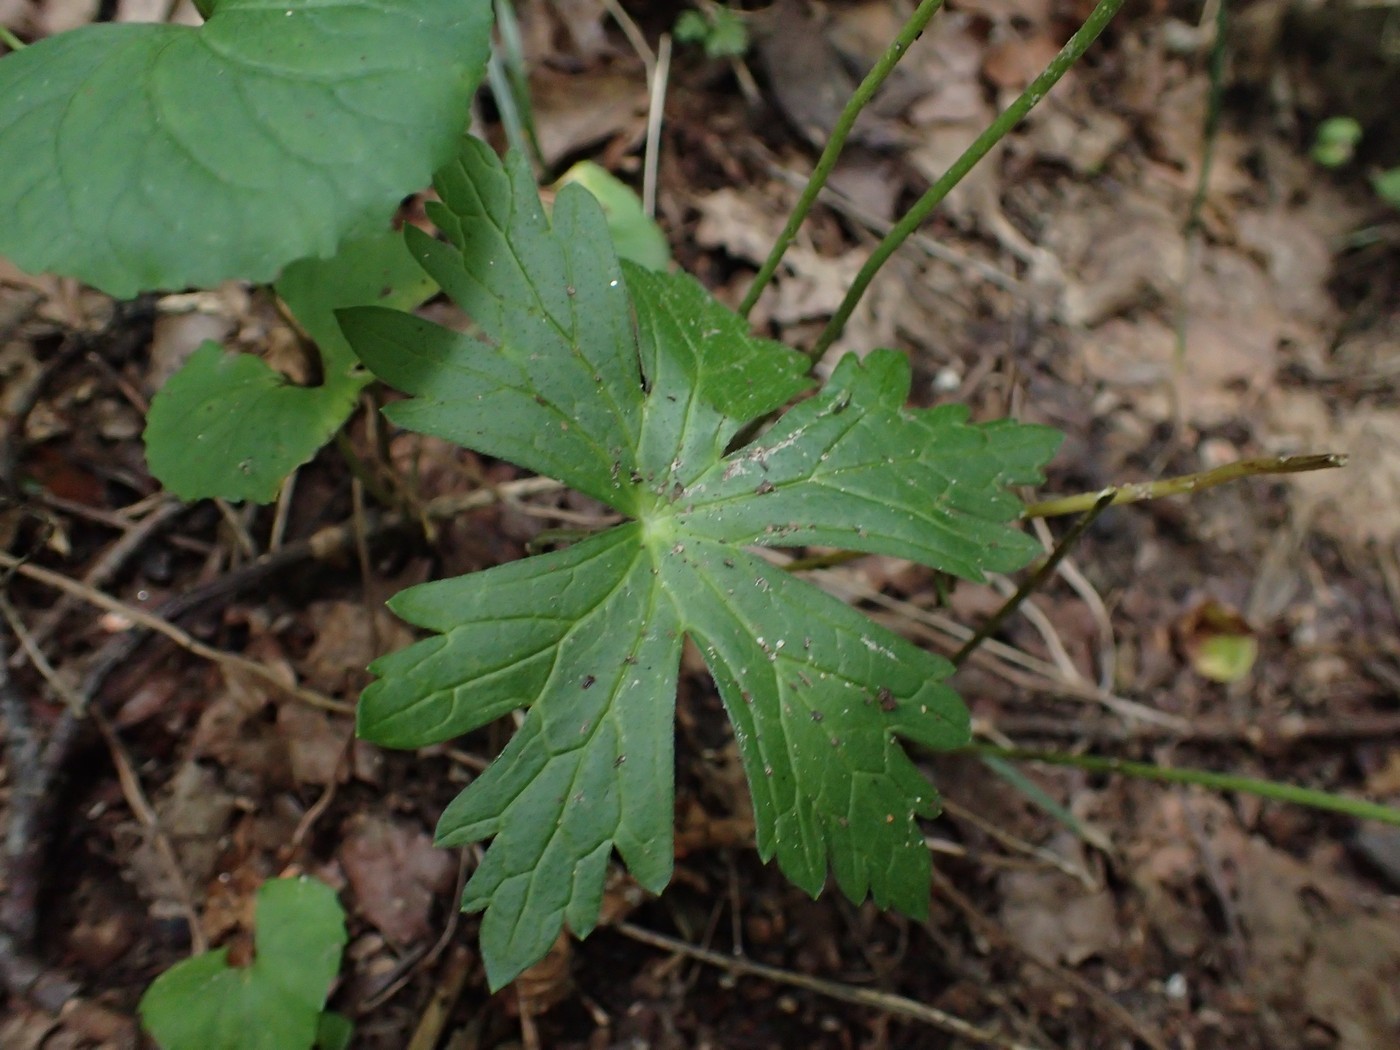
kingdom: Plantae
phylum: Tracheophyta
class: Magnoliopsida
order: Geraniales
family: Geraniaceae
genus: Geranium
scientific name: Geranium maculatum
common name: Spotted geranium
